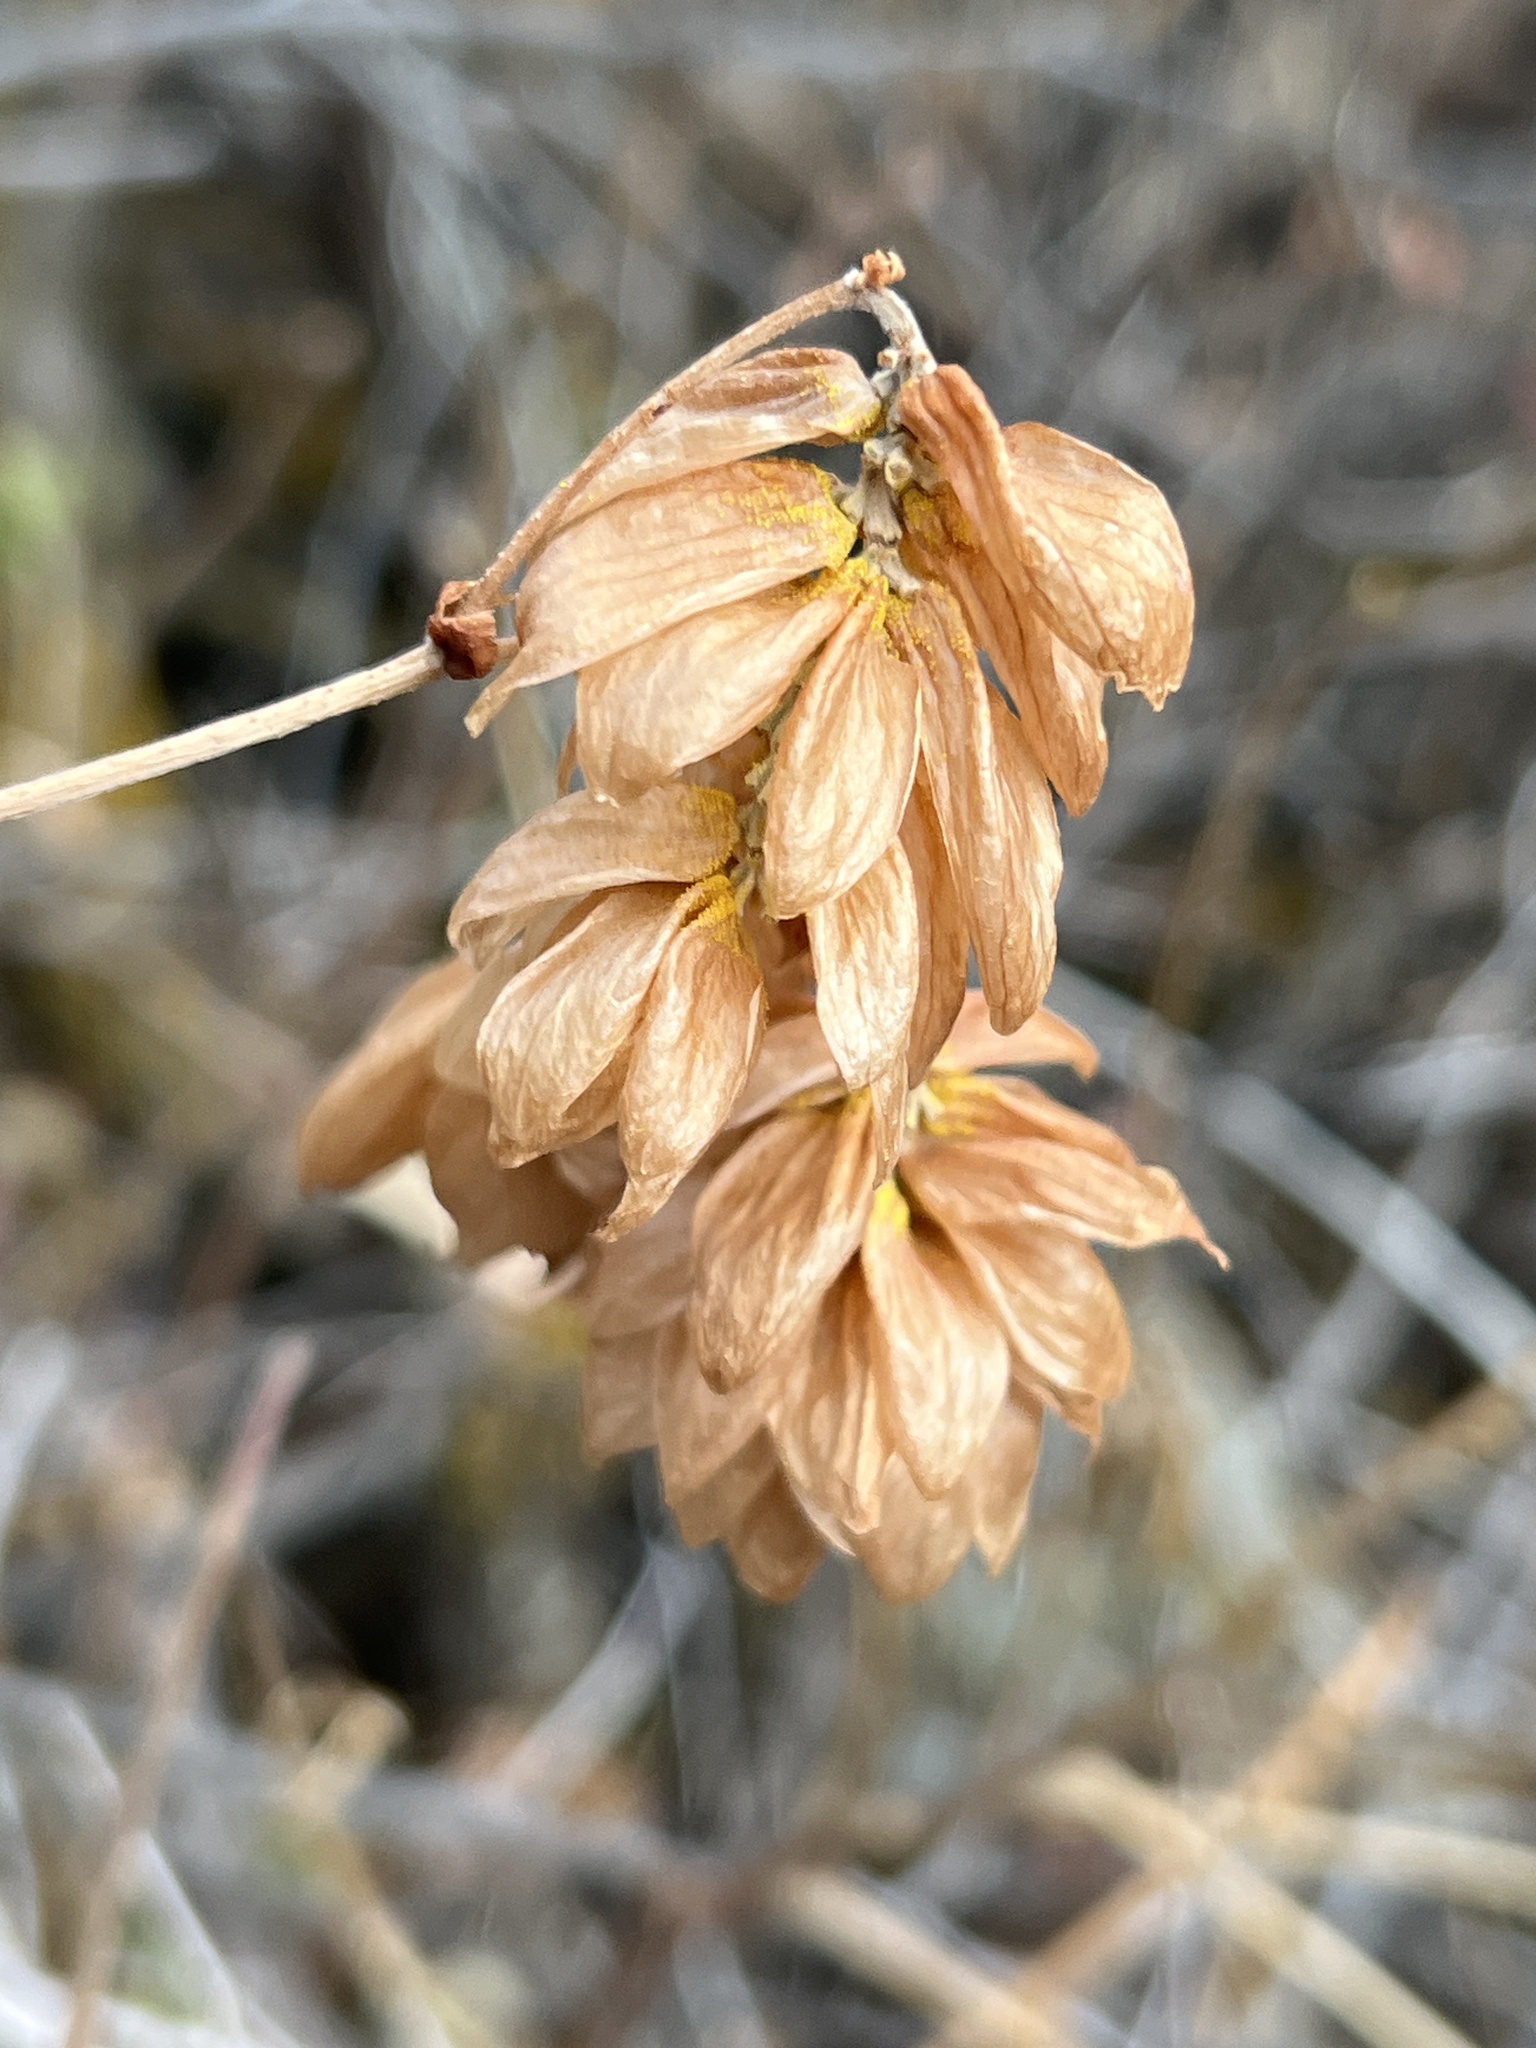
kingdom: Plantae
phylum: Tracheophyta
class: Magnoliopsida
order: Rosales
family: Cannabaceae
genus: Humulus
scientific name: Humulus lupulus
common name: Hop
